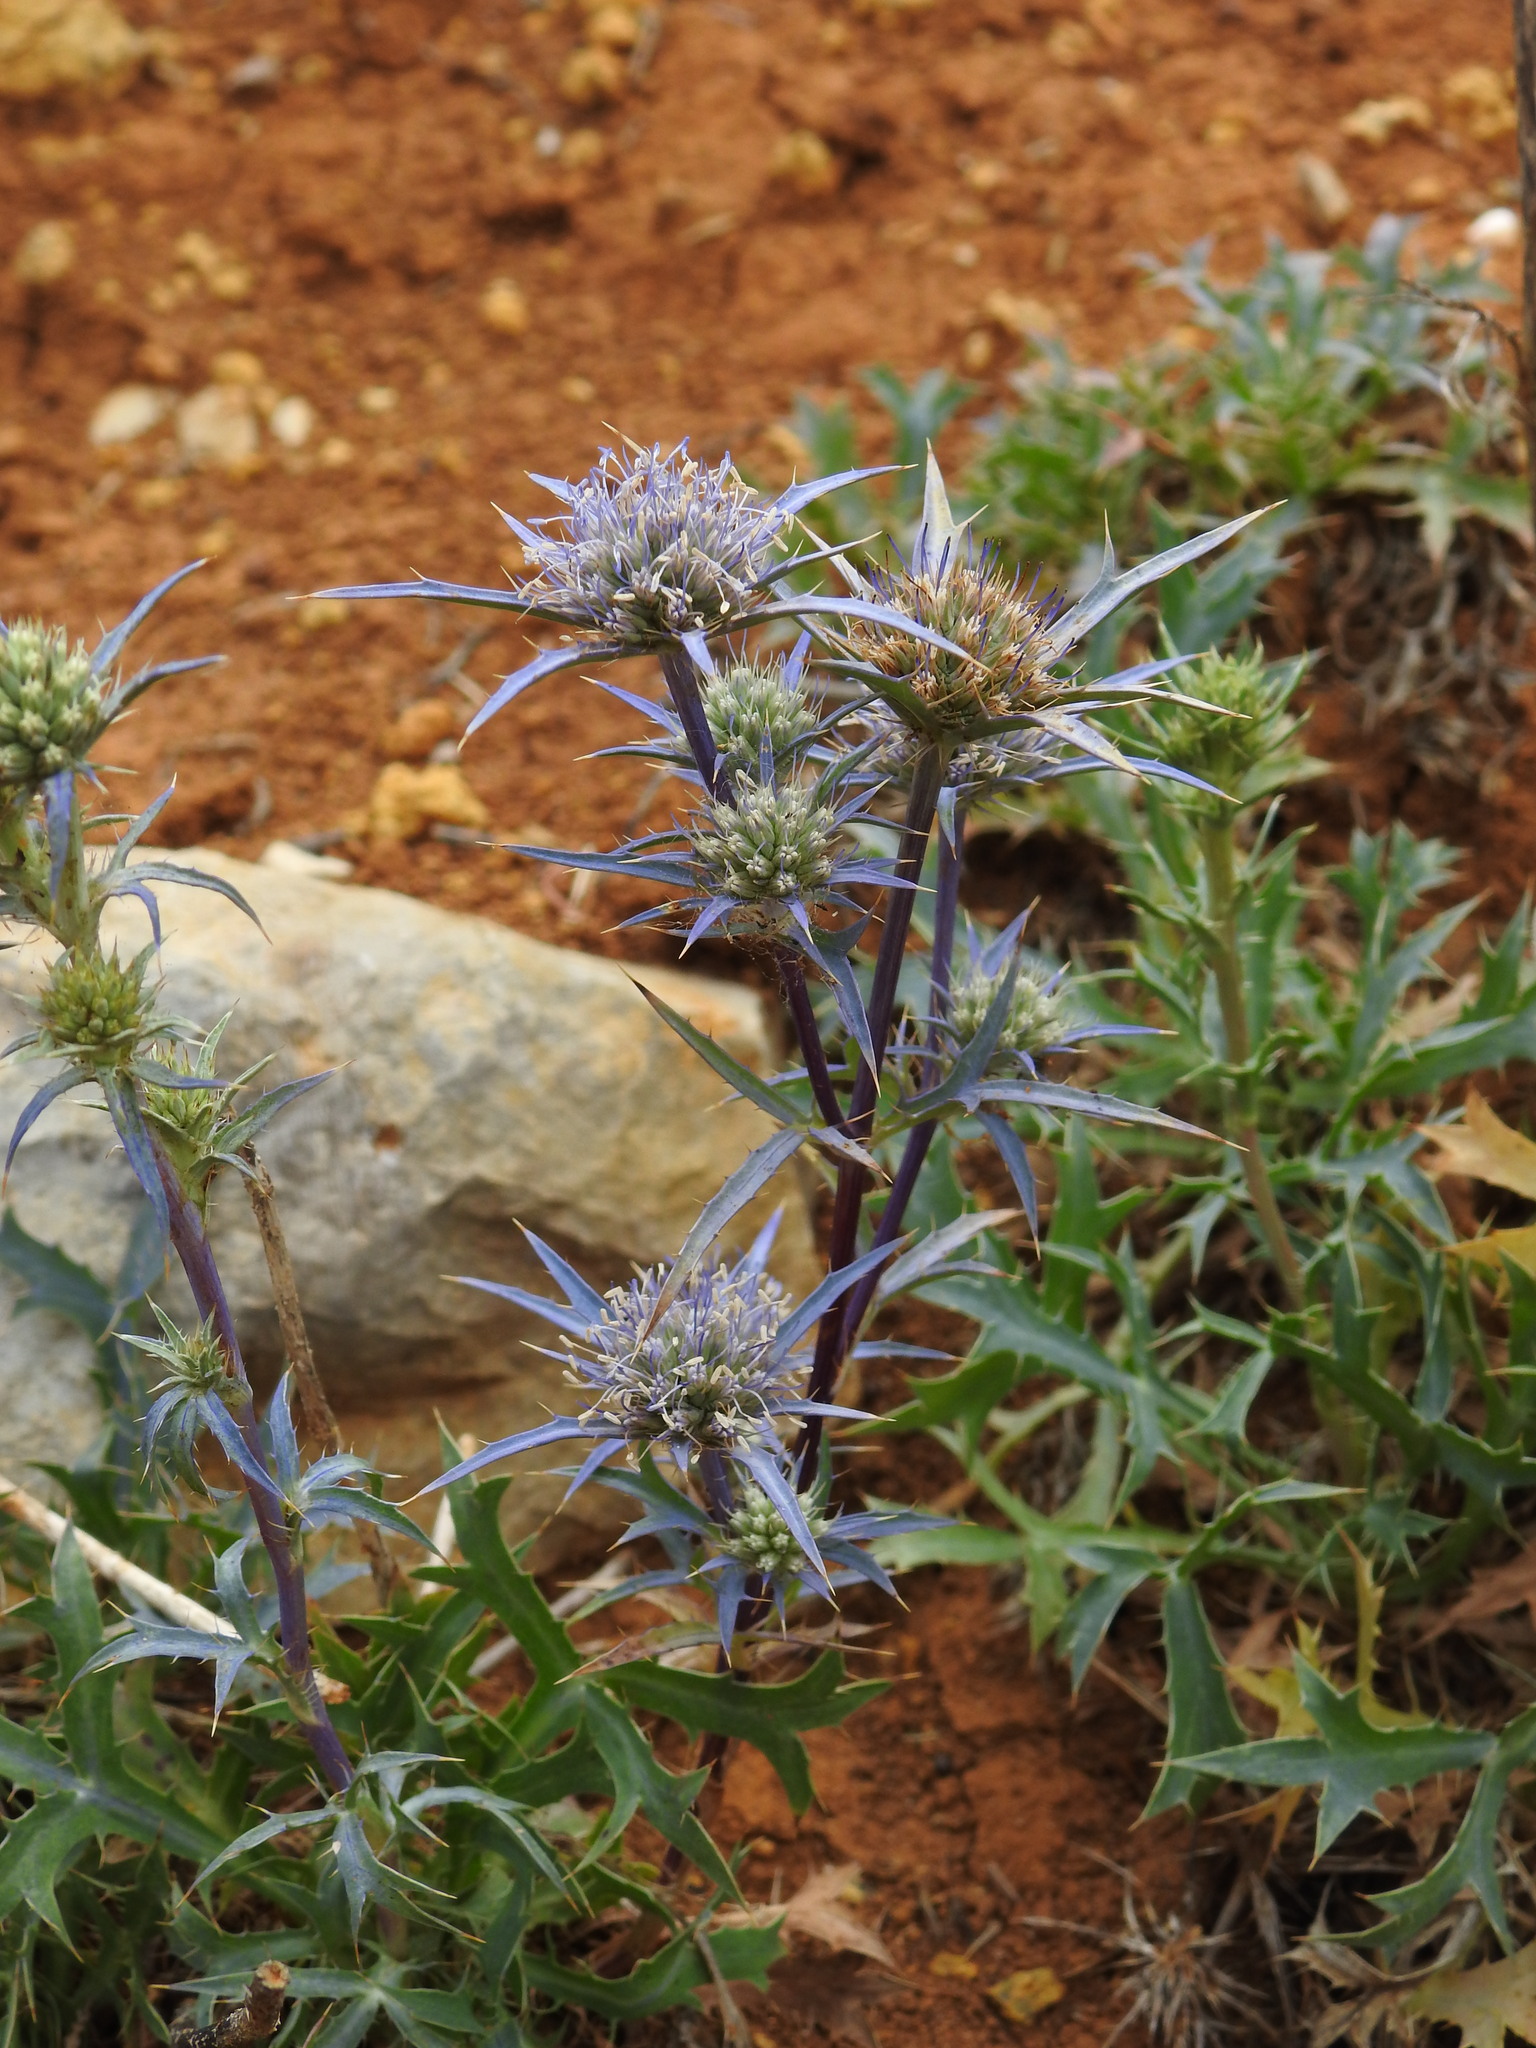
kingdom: Plantae
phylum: Tracheophyta
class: Magnoliopsida
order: Apiales
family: Apiaceae
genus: Eryngium
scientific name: Eryngium dilatatum
